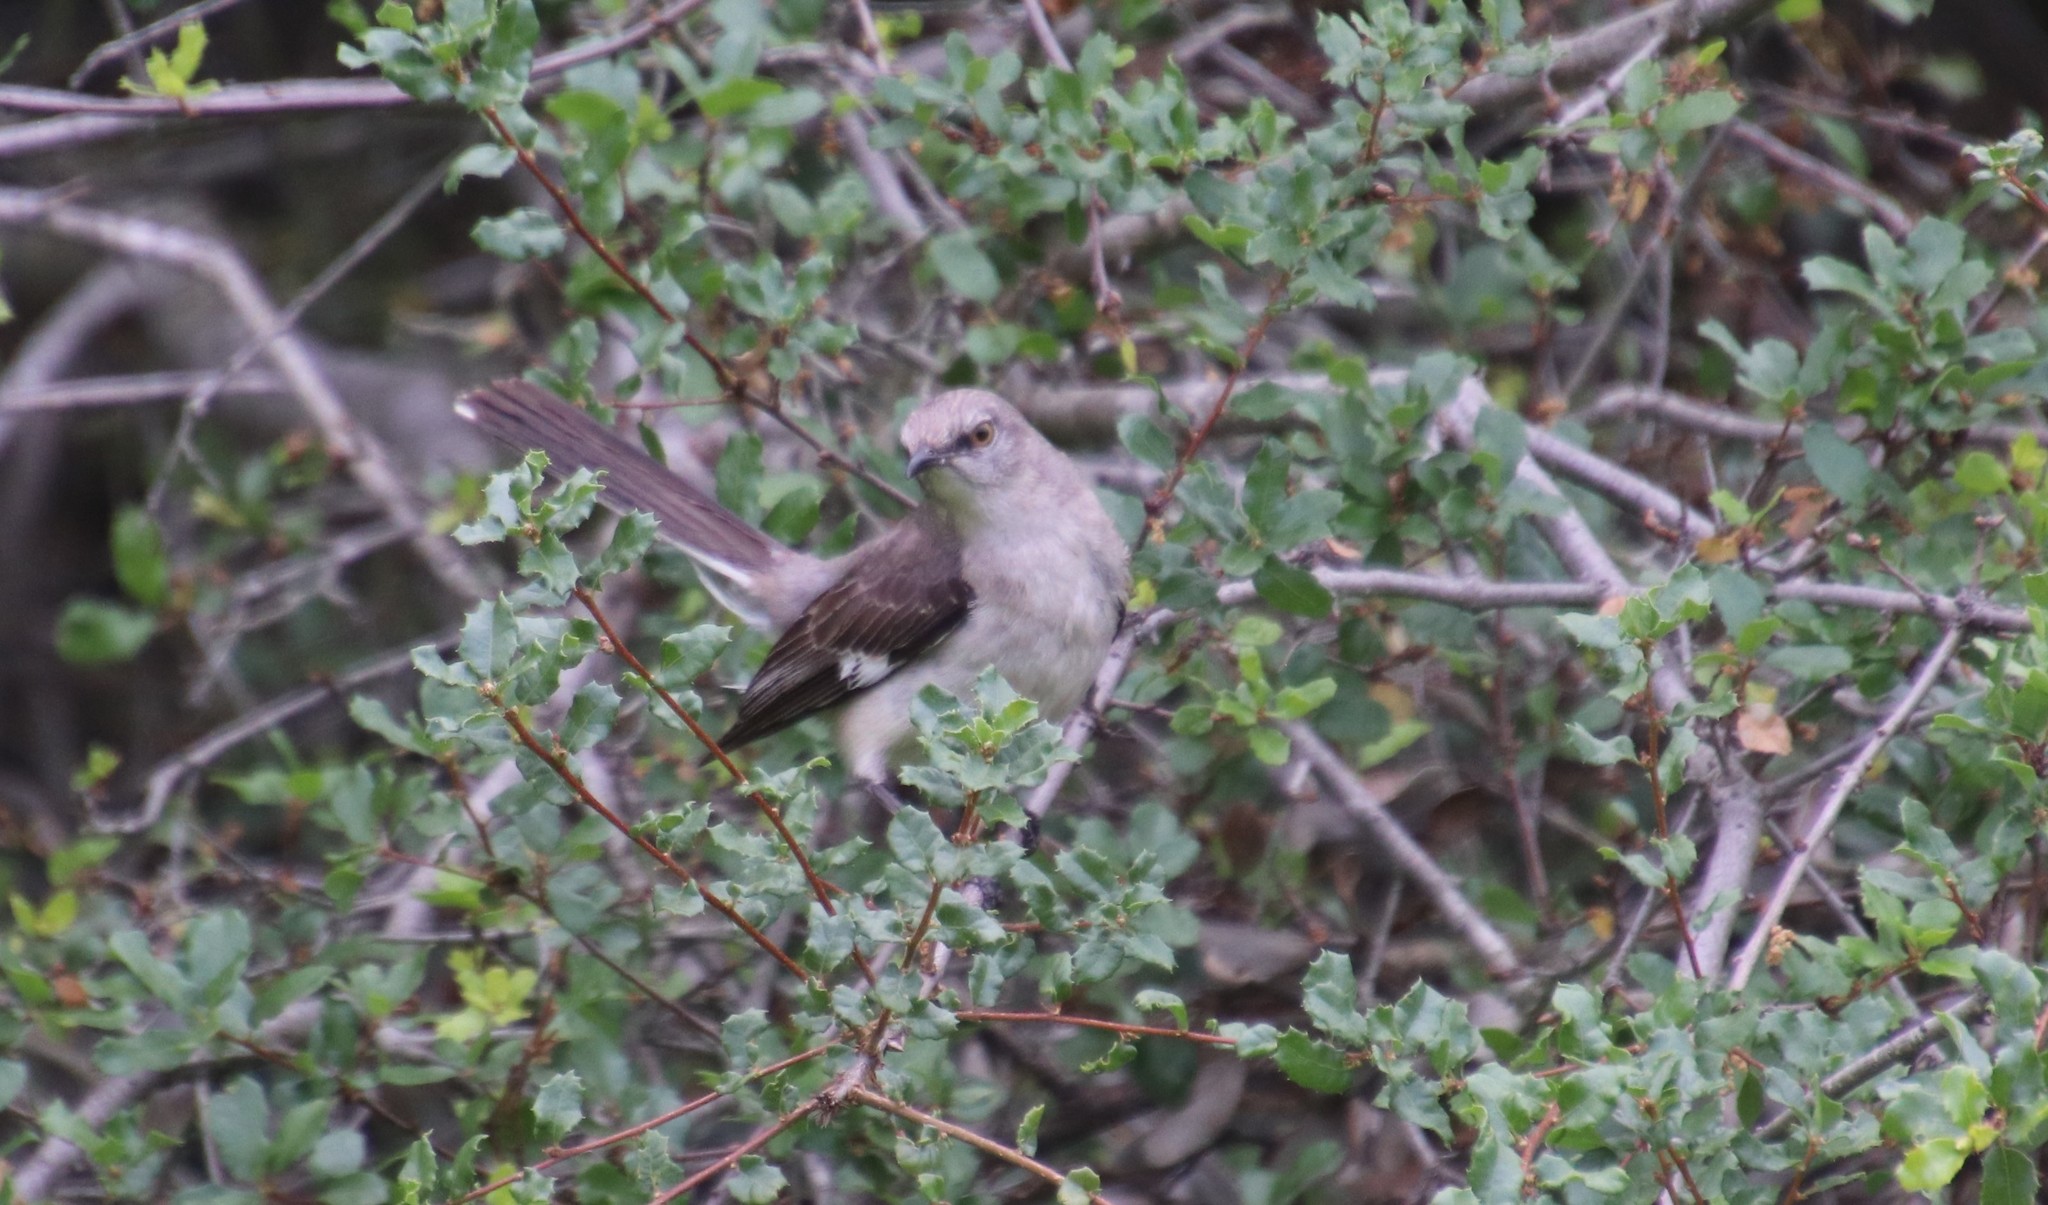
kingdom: Animalia
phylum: Chordata
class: Aves
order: Passeriformes
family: Mimidae
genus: Mimus
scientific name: Mimus polyglottos
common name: Northern mockingbird
